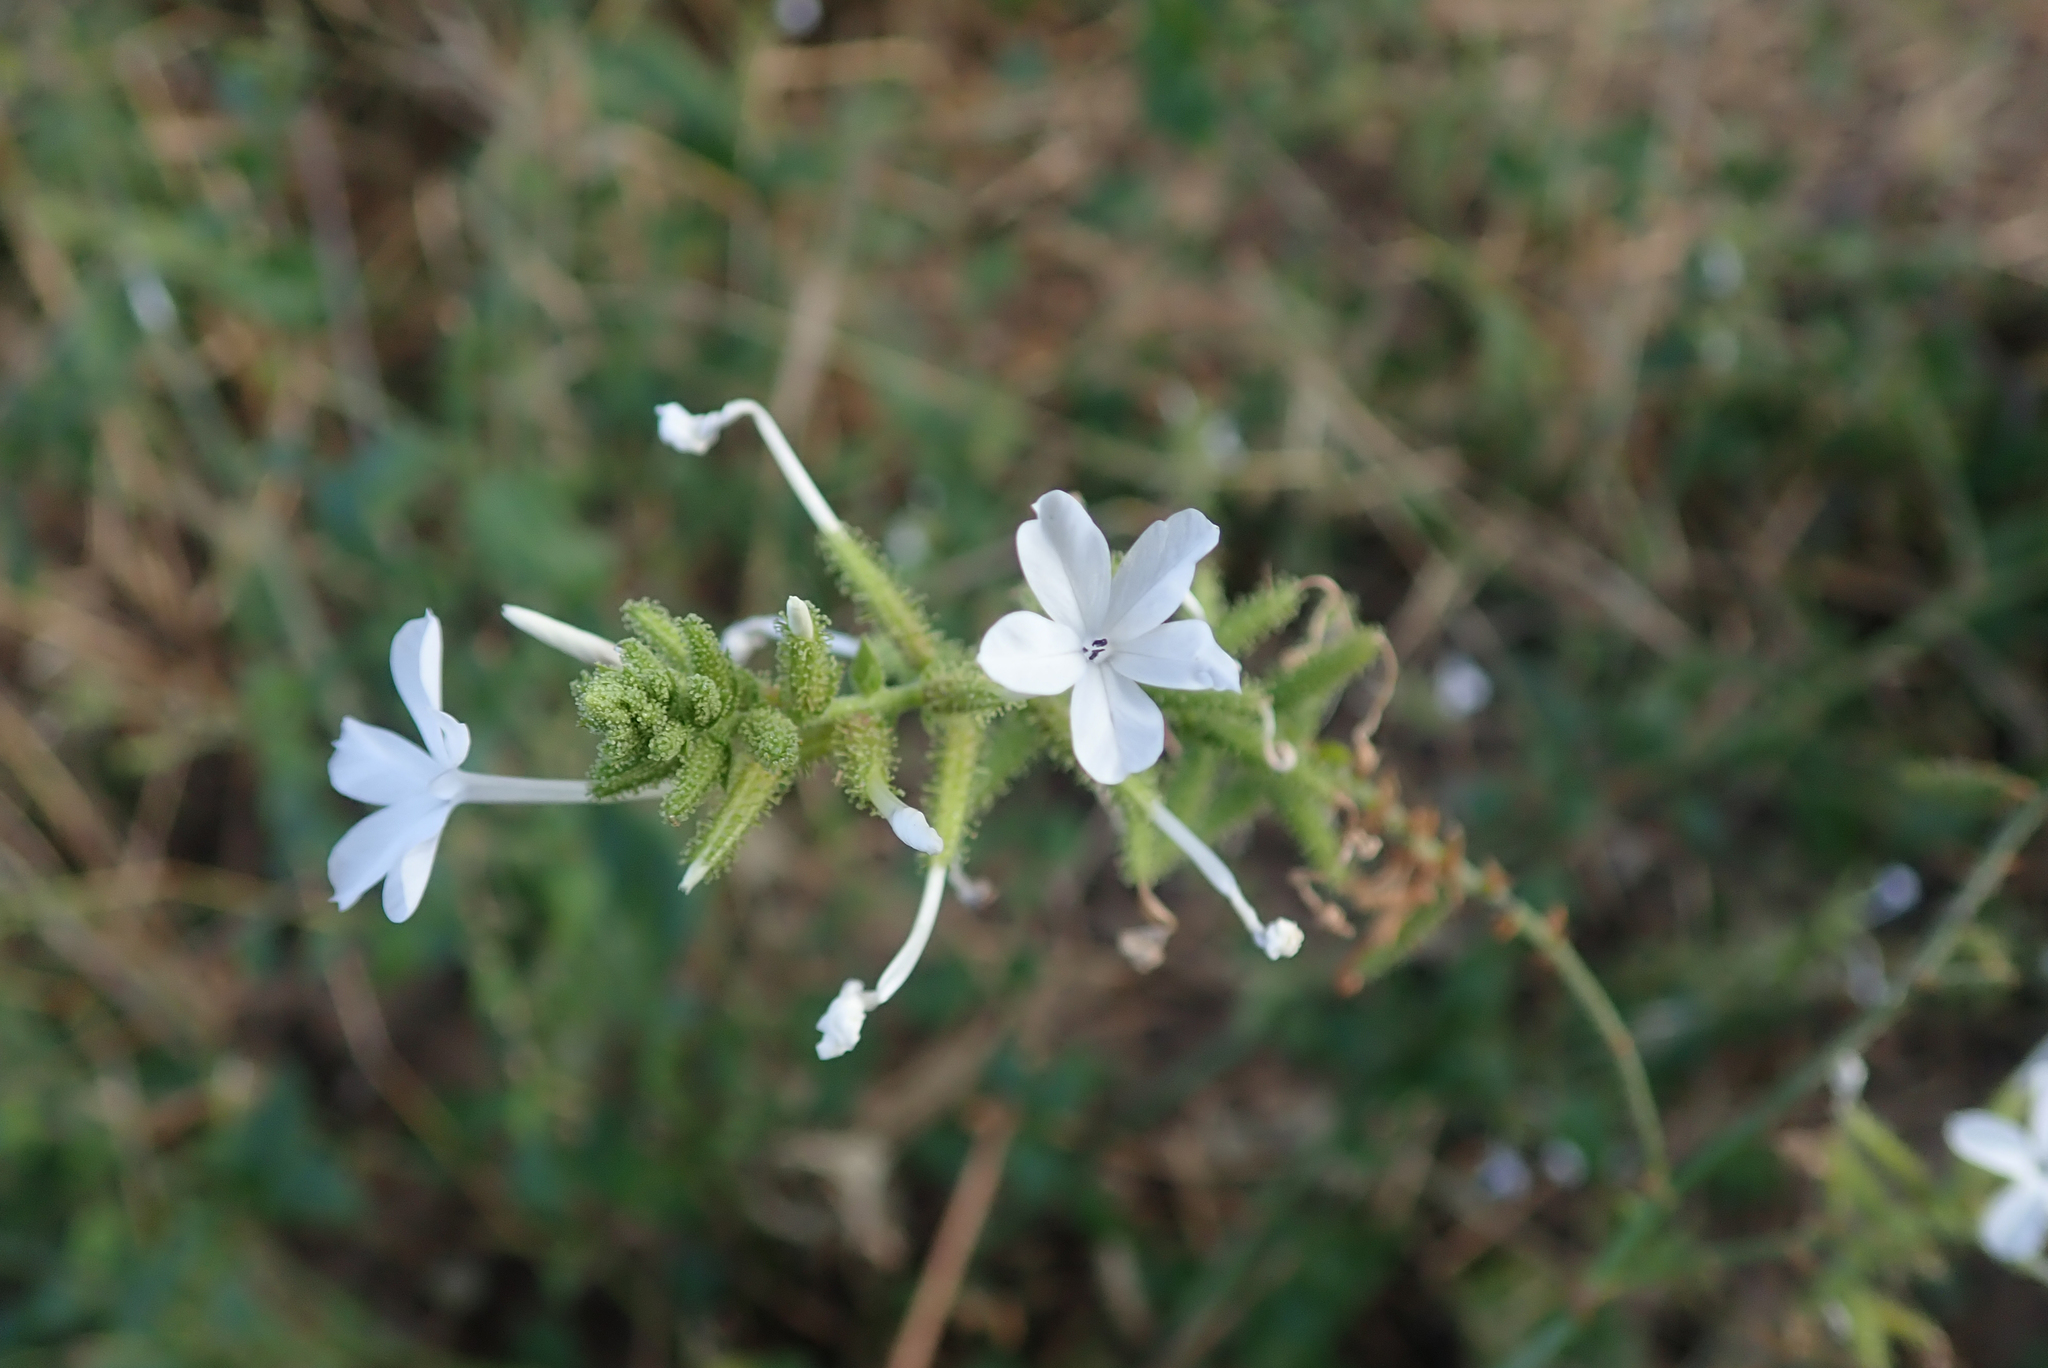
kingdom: Plantae
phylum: Tracheophyta
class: Magnoliopsida
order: Caryophyllales
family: Plumbaginaceae
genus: Plumbago
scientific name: Plumbago zeylanica
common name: Doctorbush
